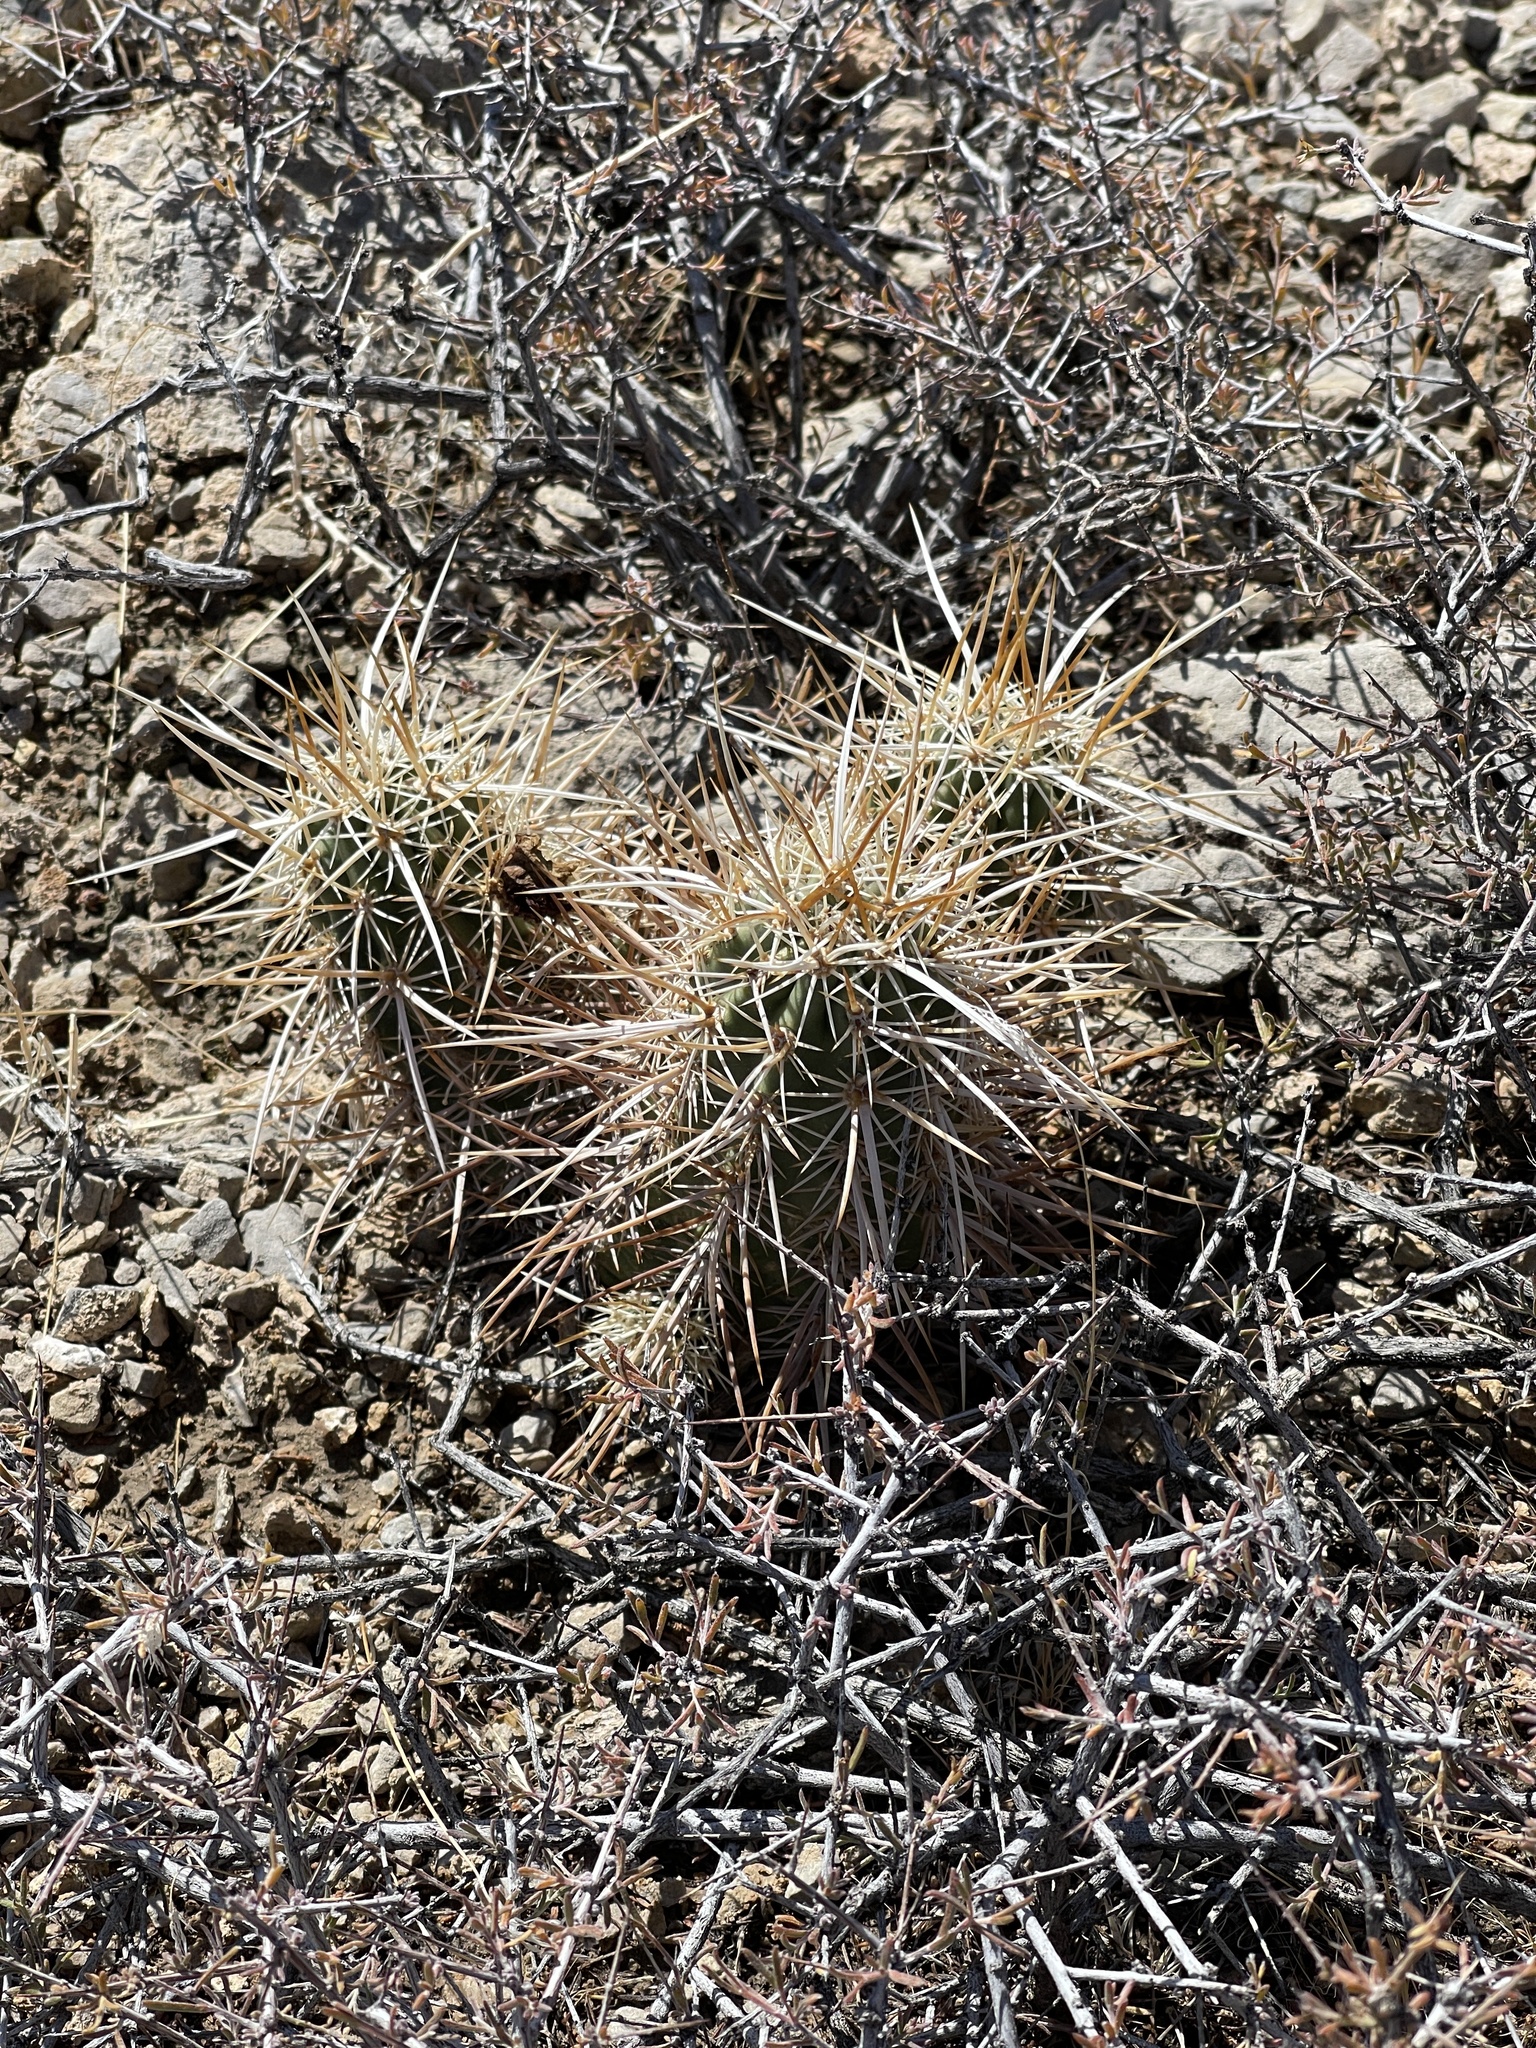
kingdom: Plantae
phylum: Tracheophyta
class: Magnoliopsida
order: Caryophyllales
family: Cactaceae
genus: Echinocereus
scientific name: Echinocereus engelmannii
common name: Engelmann's hedgehog cactus
